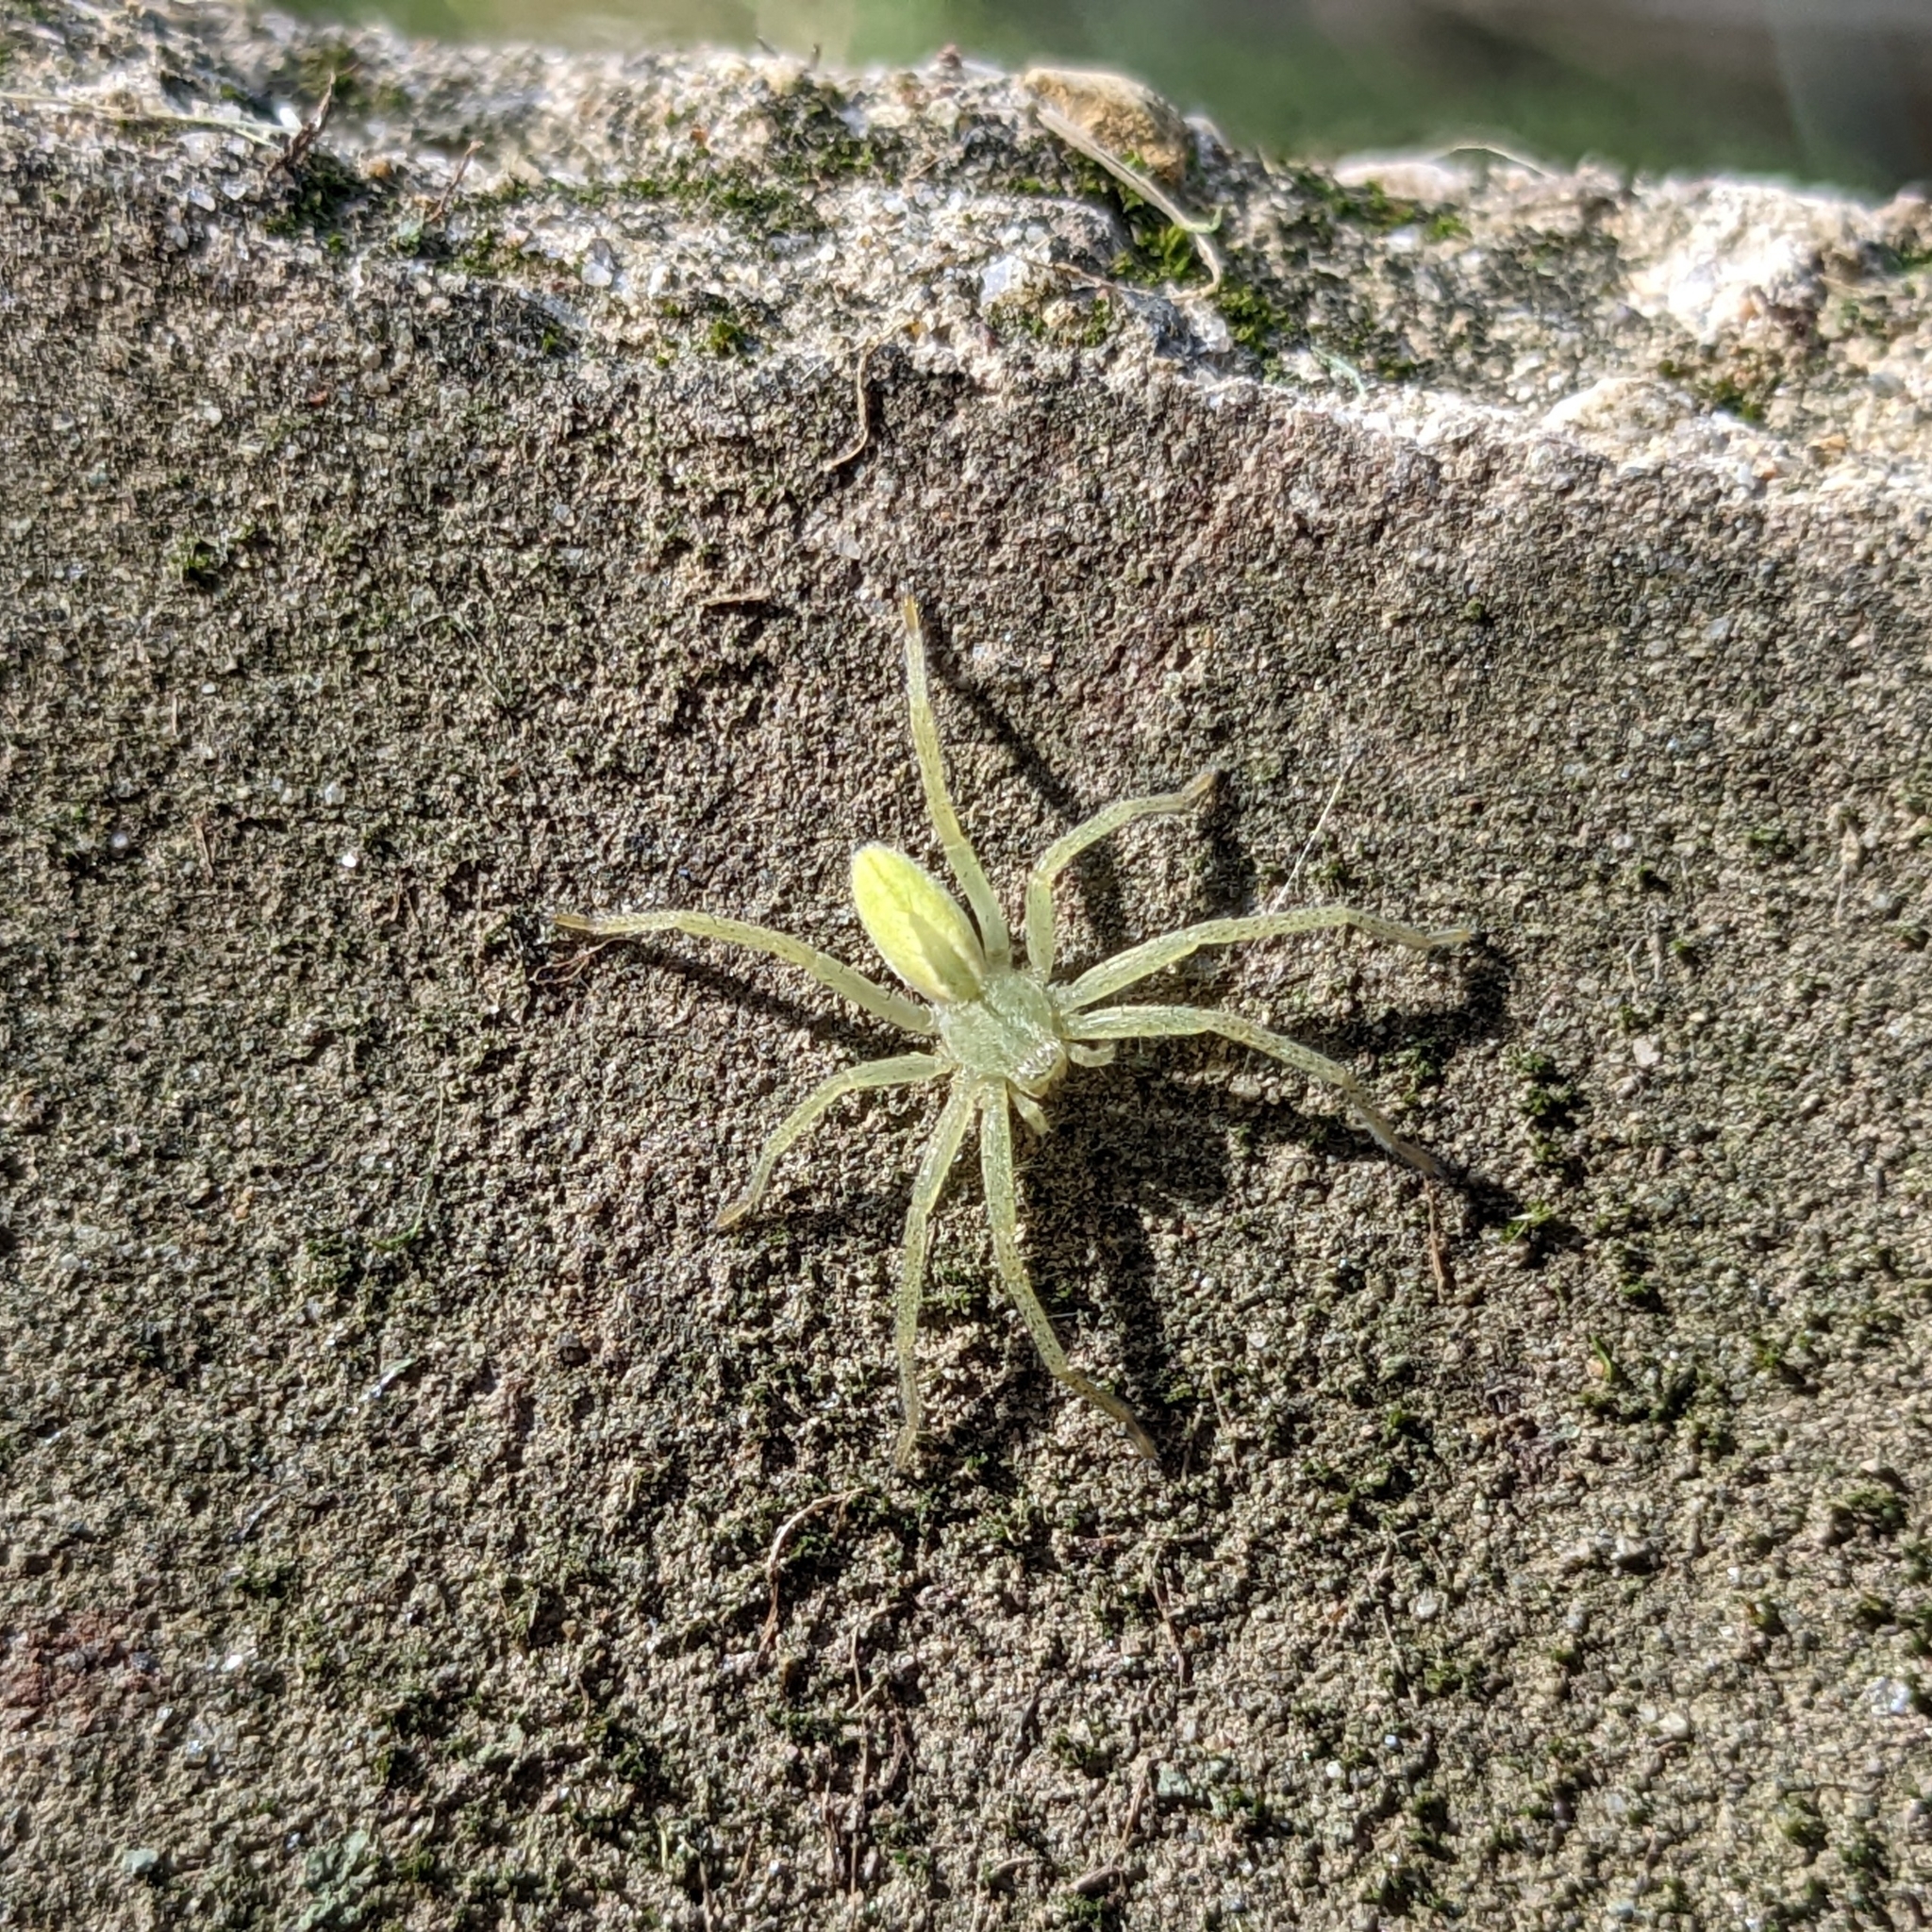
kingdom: Animalia
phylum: Arthropoda
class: Arachnida
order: Araneae
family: Sparassidae
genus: Micrommata
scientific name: Micrommata virescens
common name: Green spider
